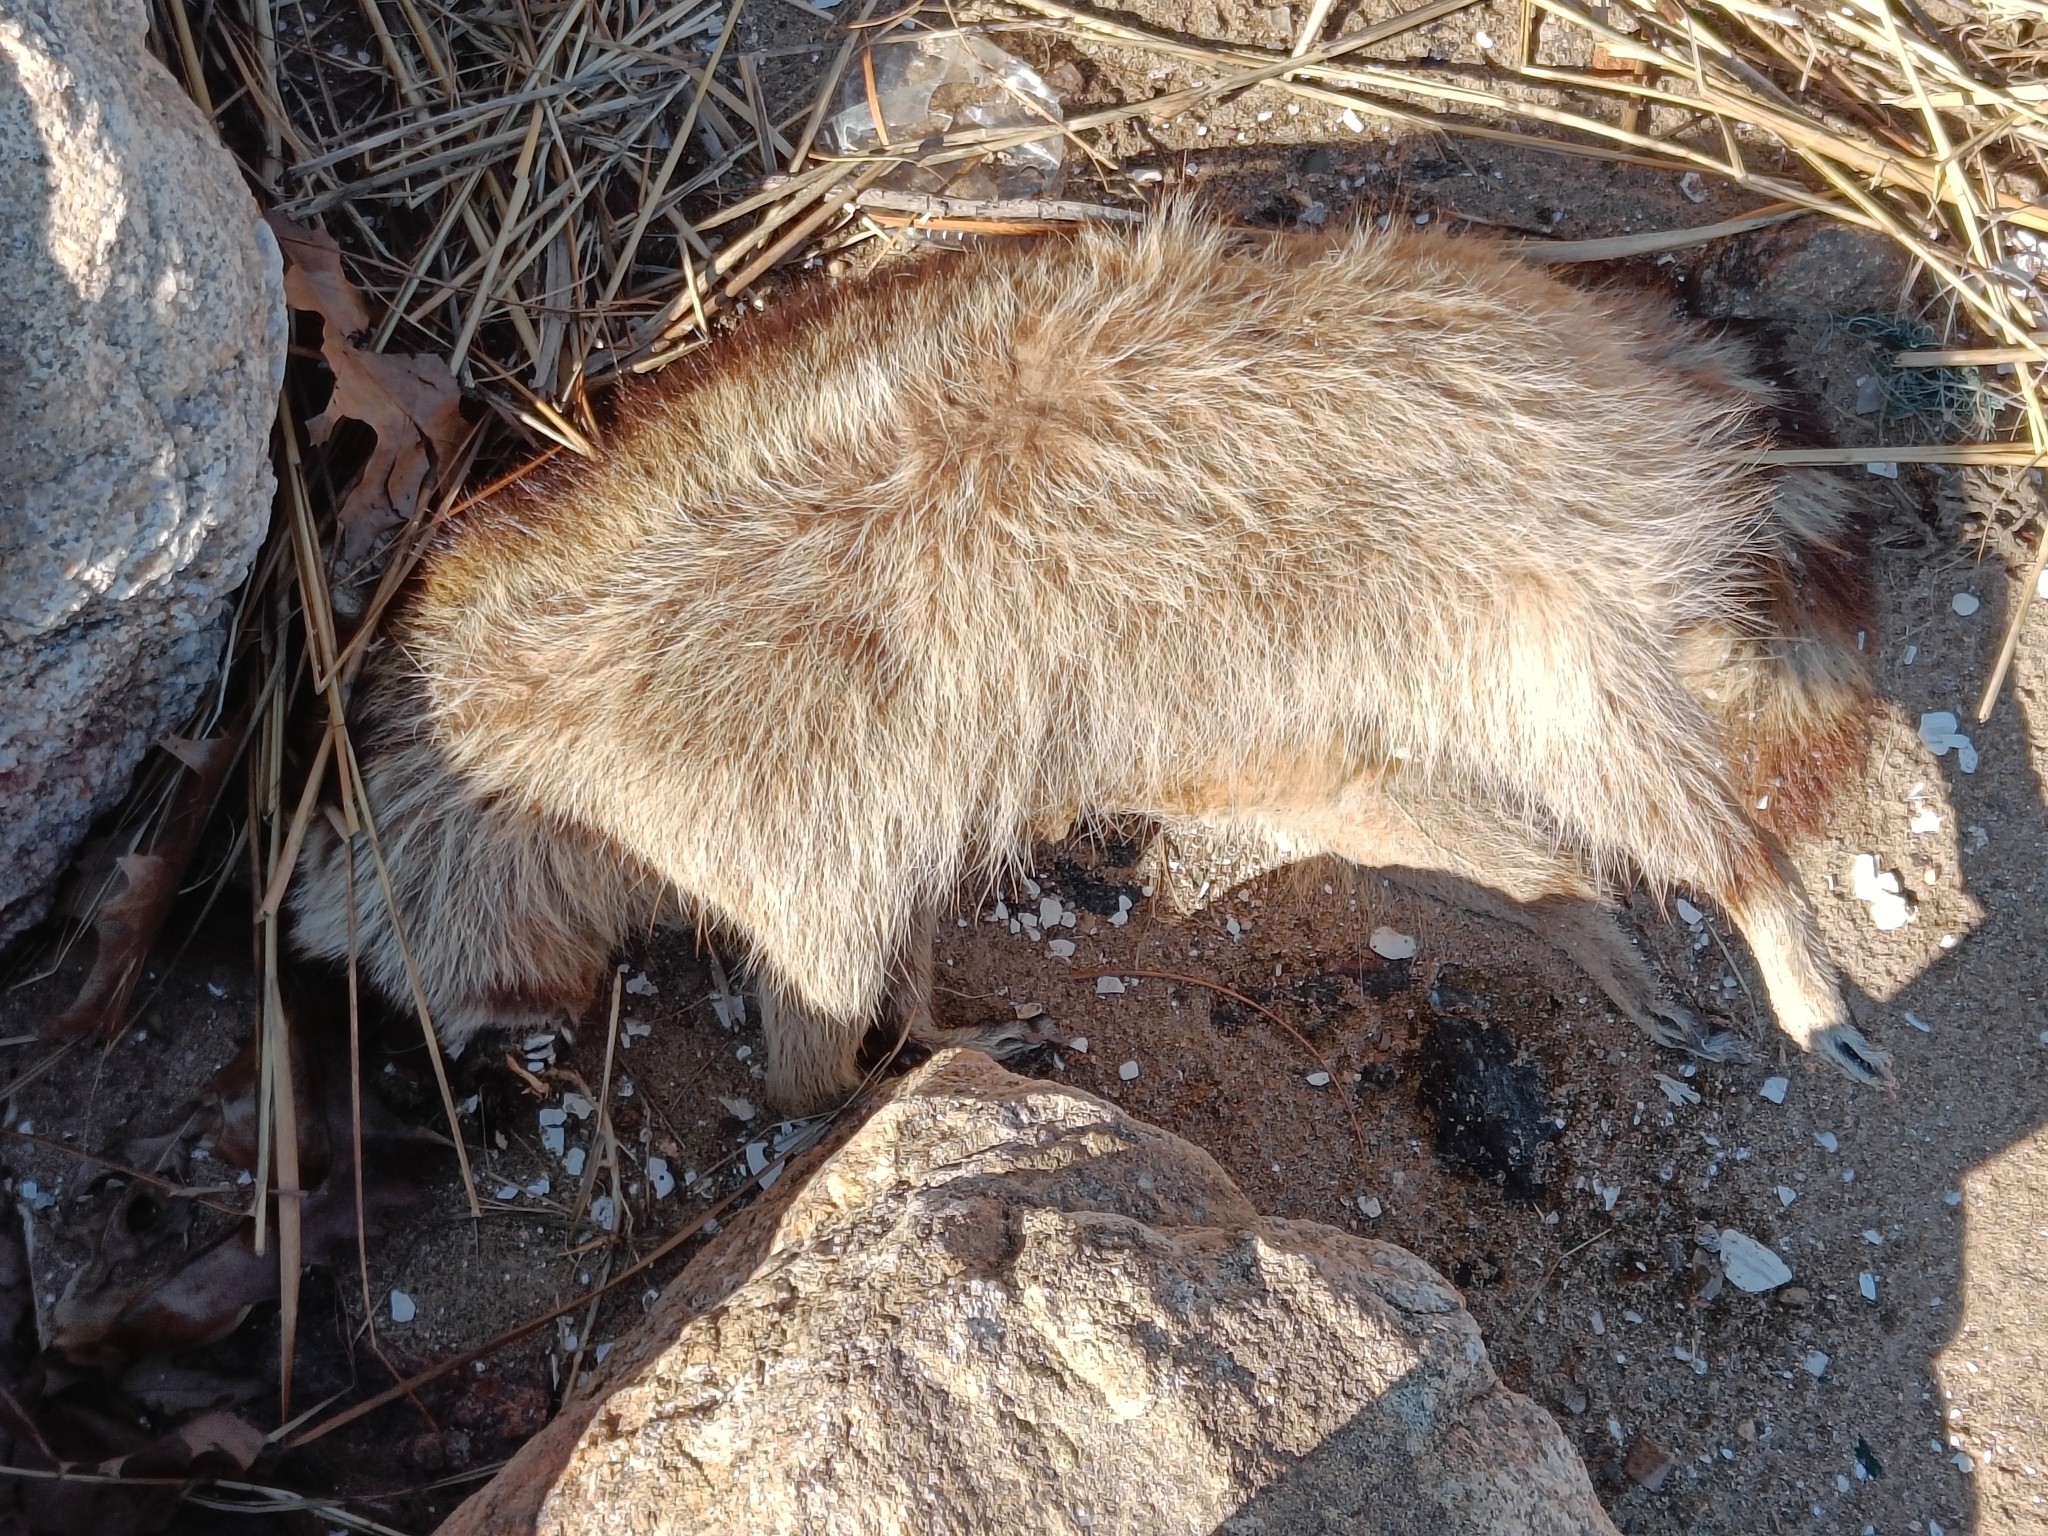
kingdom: Animalia
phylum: Chordata
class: Mammalia
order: Carnivora
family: Procyonidae
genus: Procyon
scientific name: Procyon lotor
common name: Raccoon
